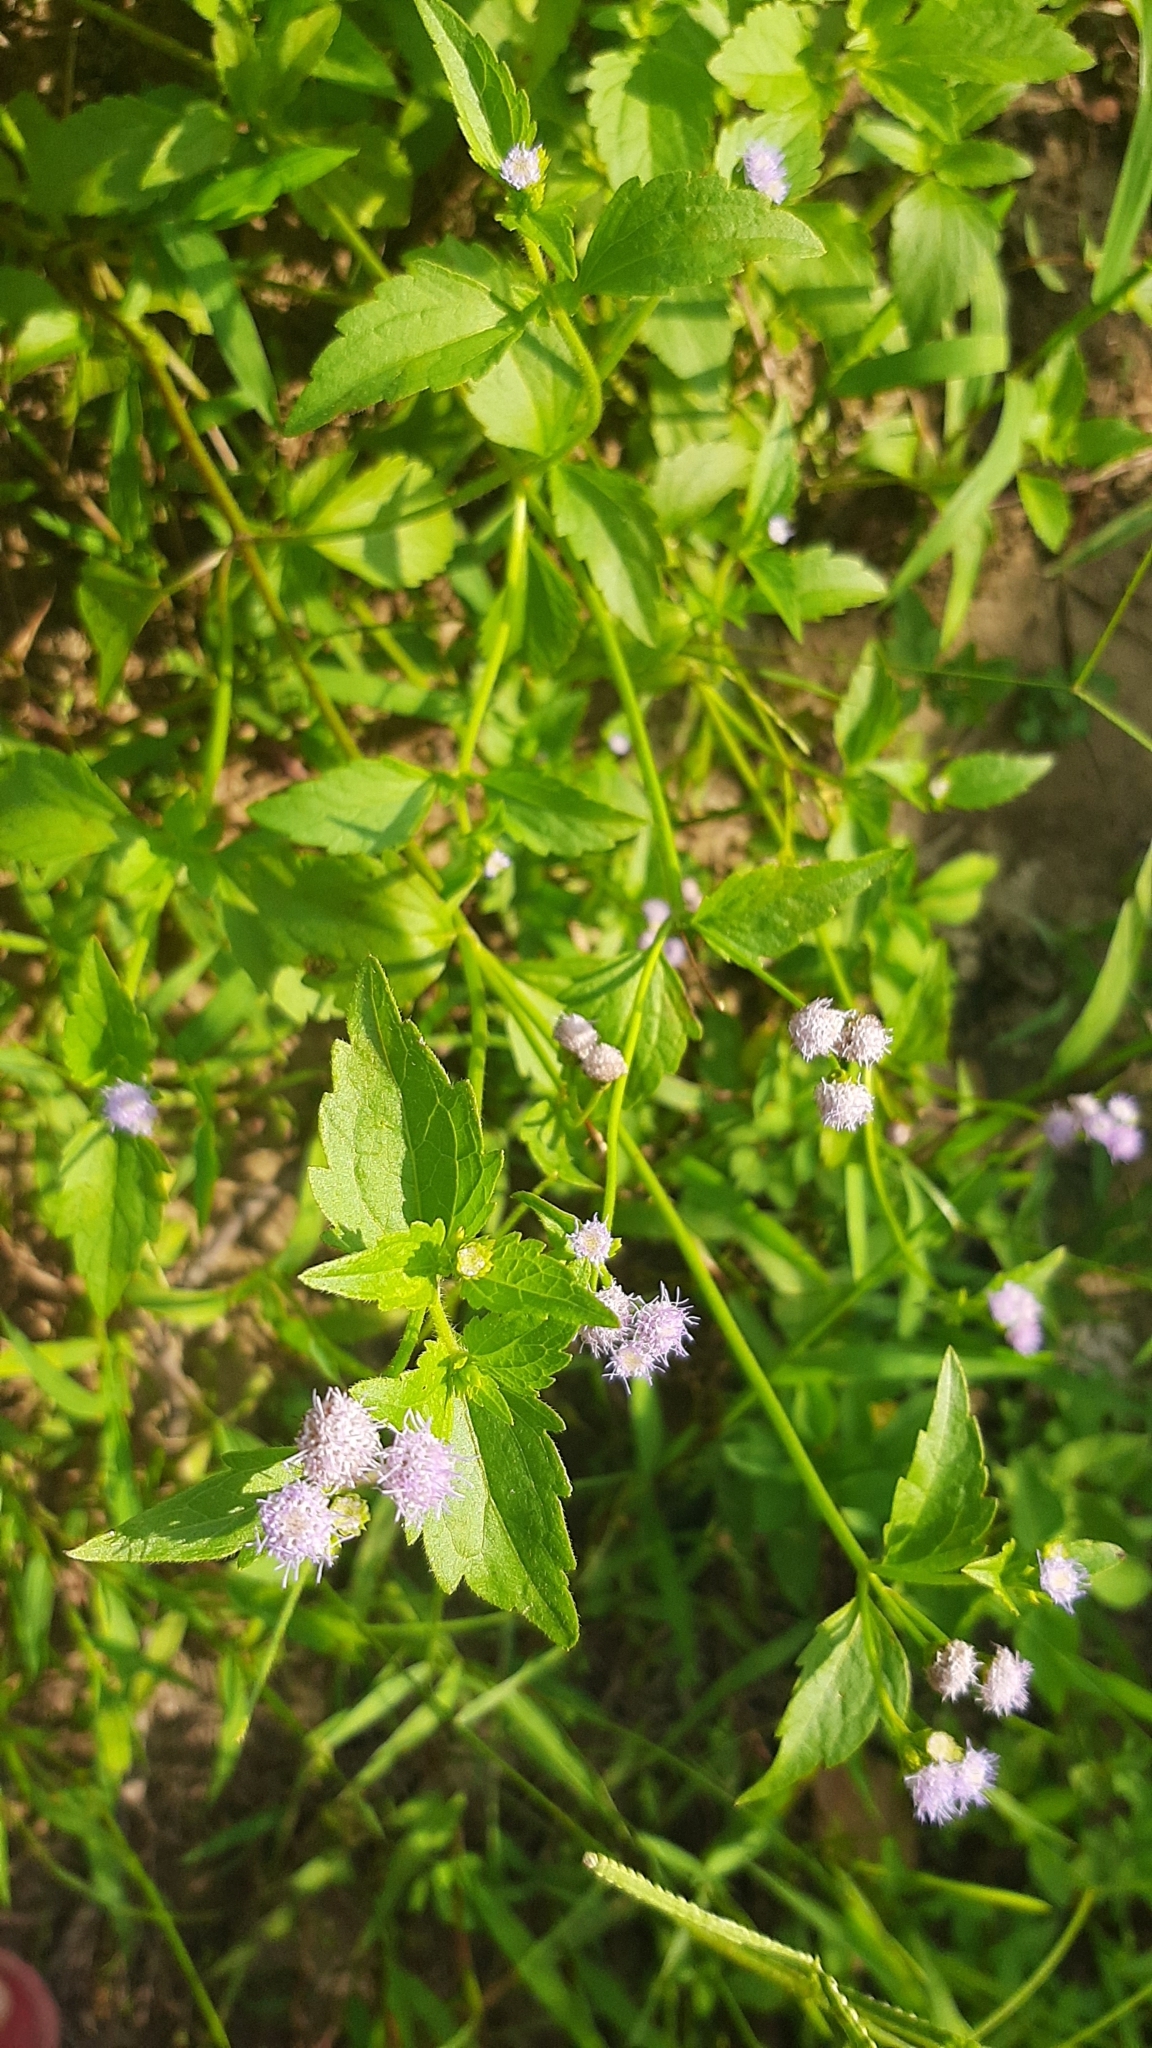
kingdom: Plantae
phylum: Tracheophyta
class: Magnoliopsida
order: Asterales
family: Asteraceae
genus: Praxelis
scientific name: Praxelis clematidea
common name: Praxelis
